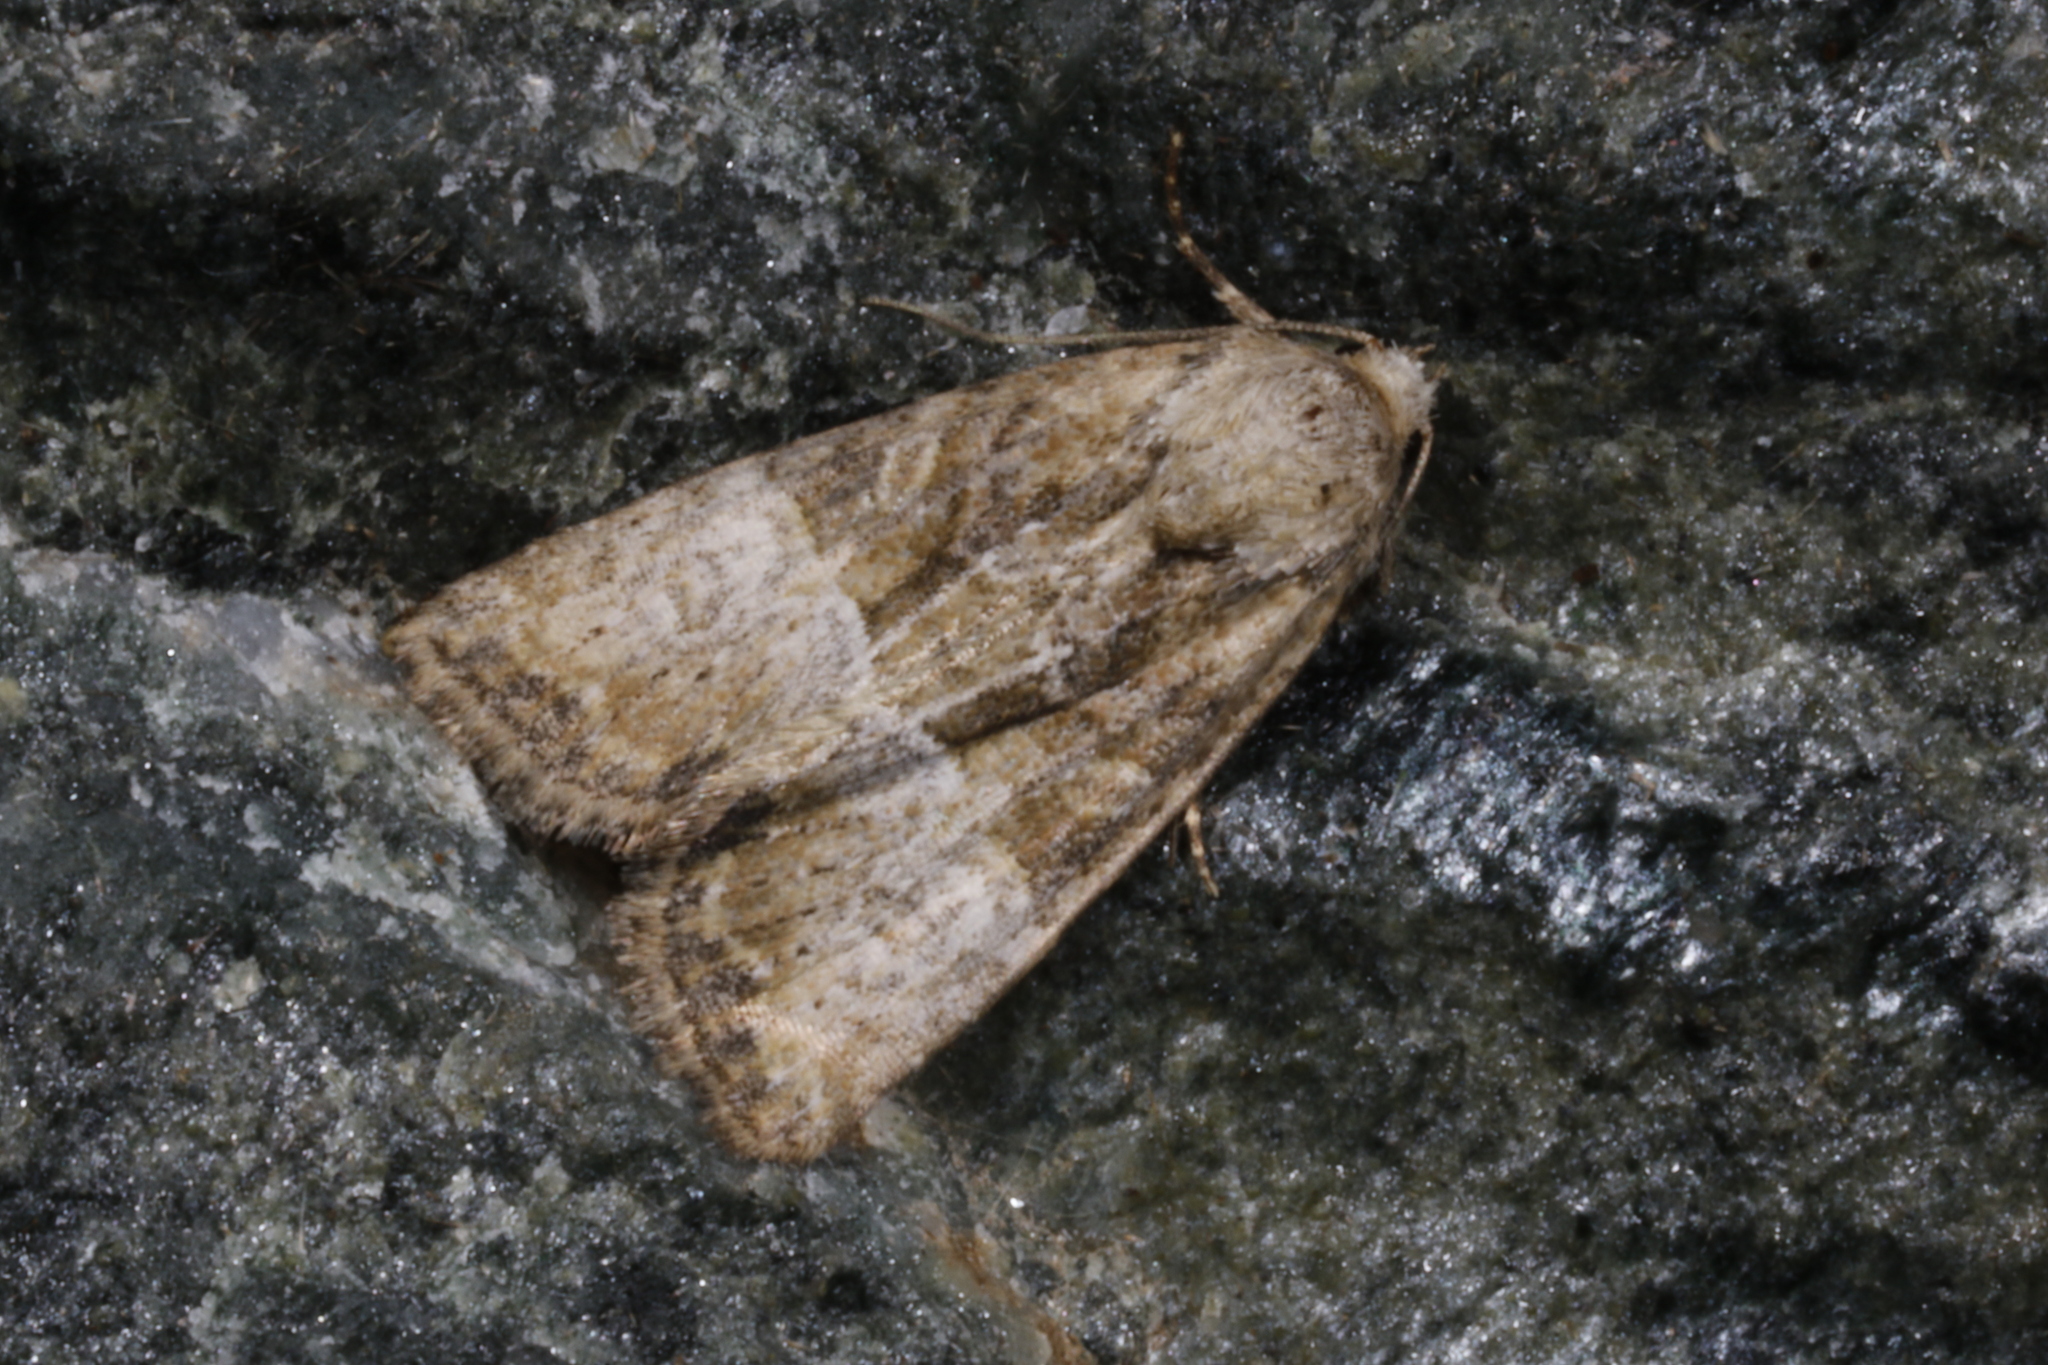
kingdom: Animalia
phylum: Arthropoda
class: Insecta
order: Lepidoptera
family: Noctuidae
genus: Mesoligia
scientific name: Mesoligia furuncula
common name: Cloaked minor
